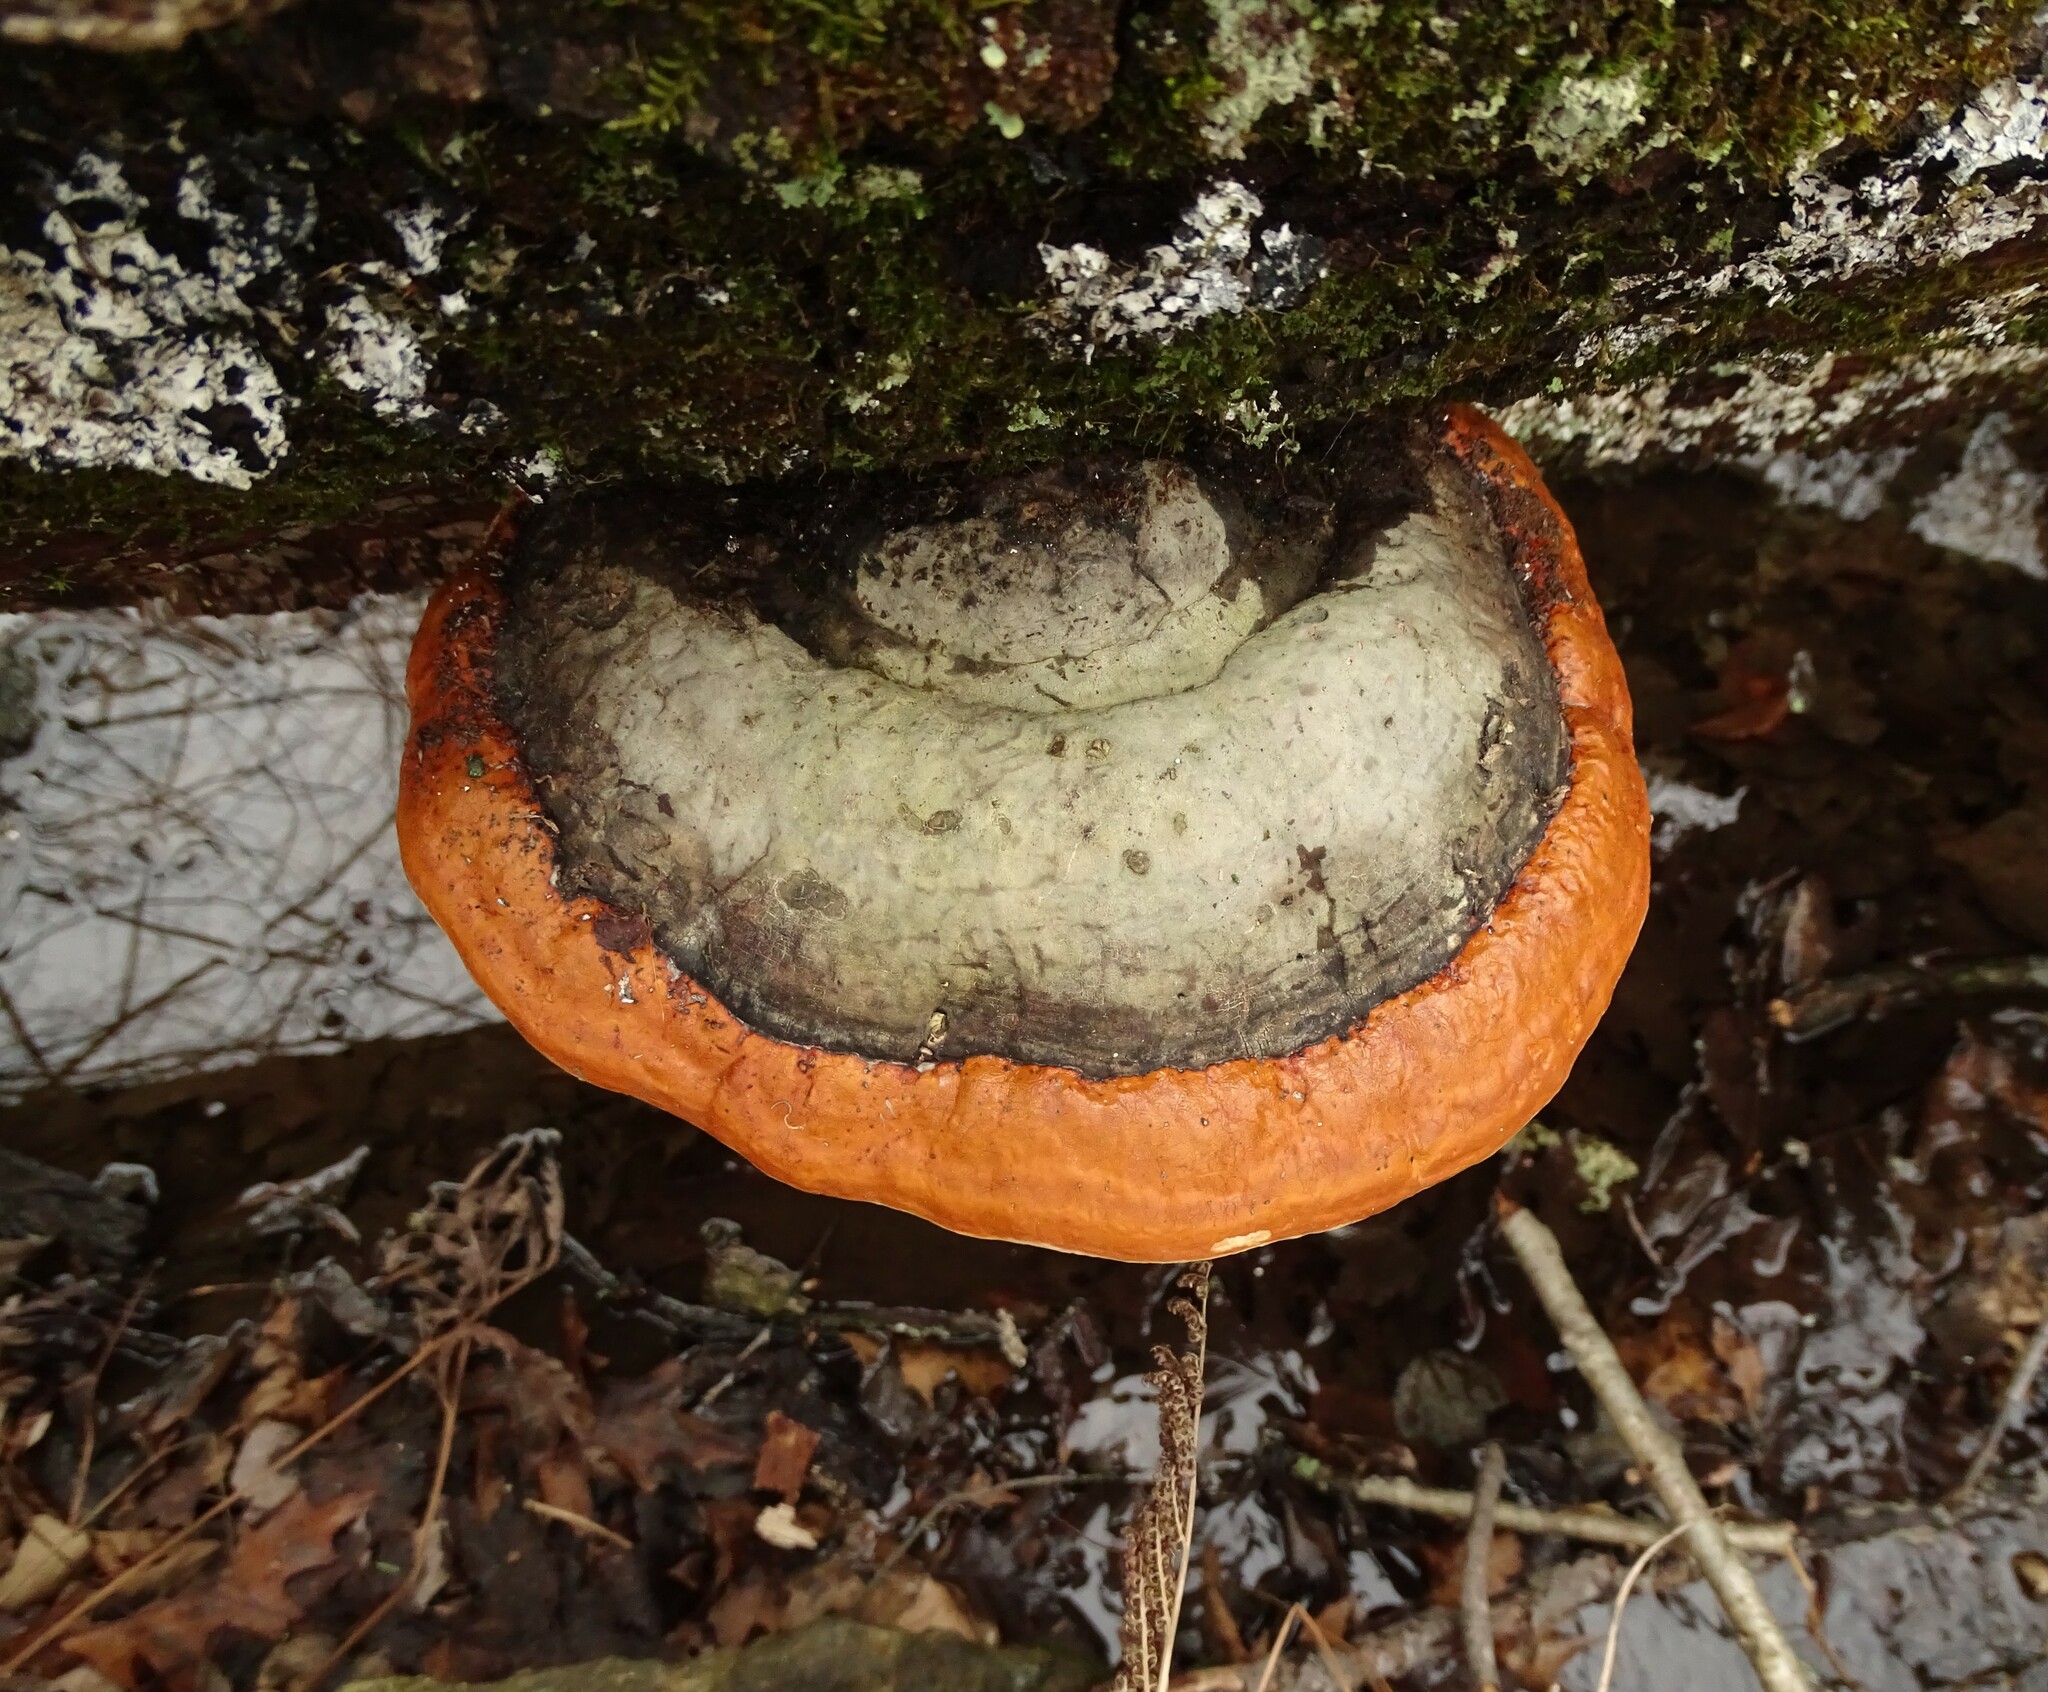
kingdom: Fungi
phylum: Basidiomycota
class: Agaricomycetes
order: Polyporales
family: Fomitopsidaceae
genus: Fomitopsis
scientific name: Fomitopsis mounceae
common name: Northern red belt
